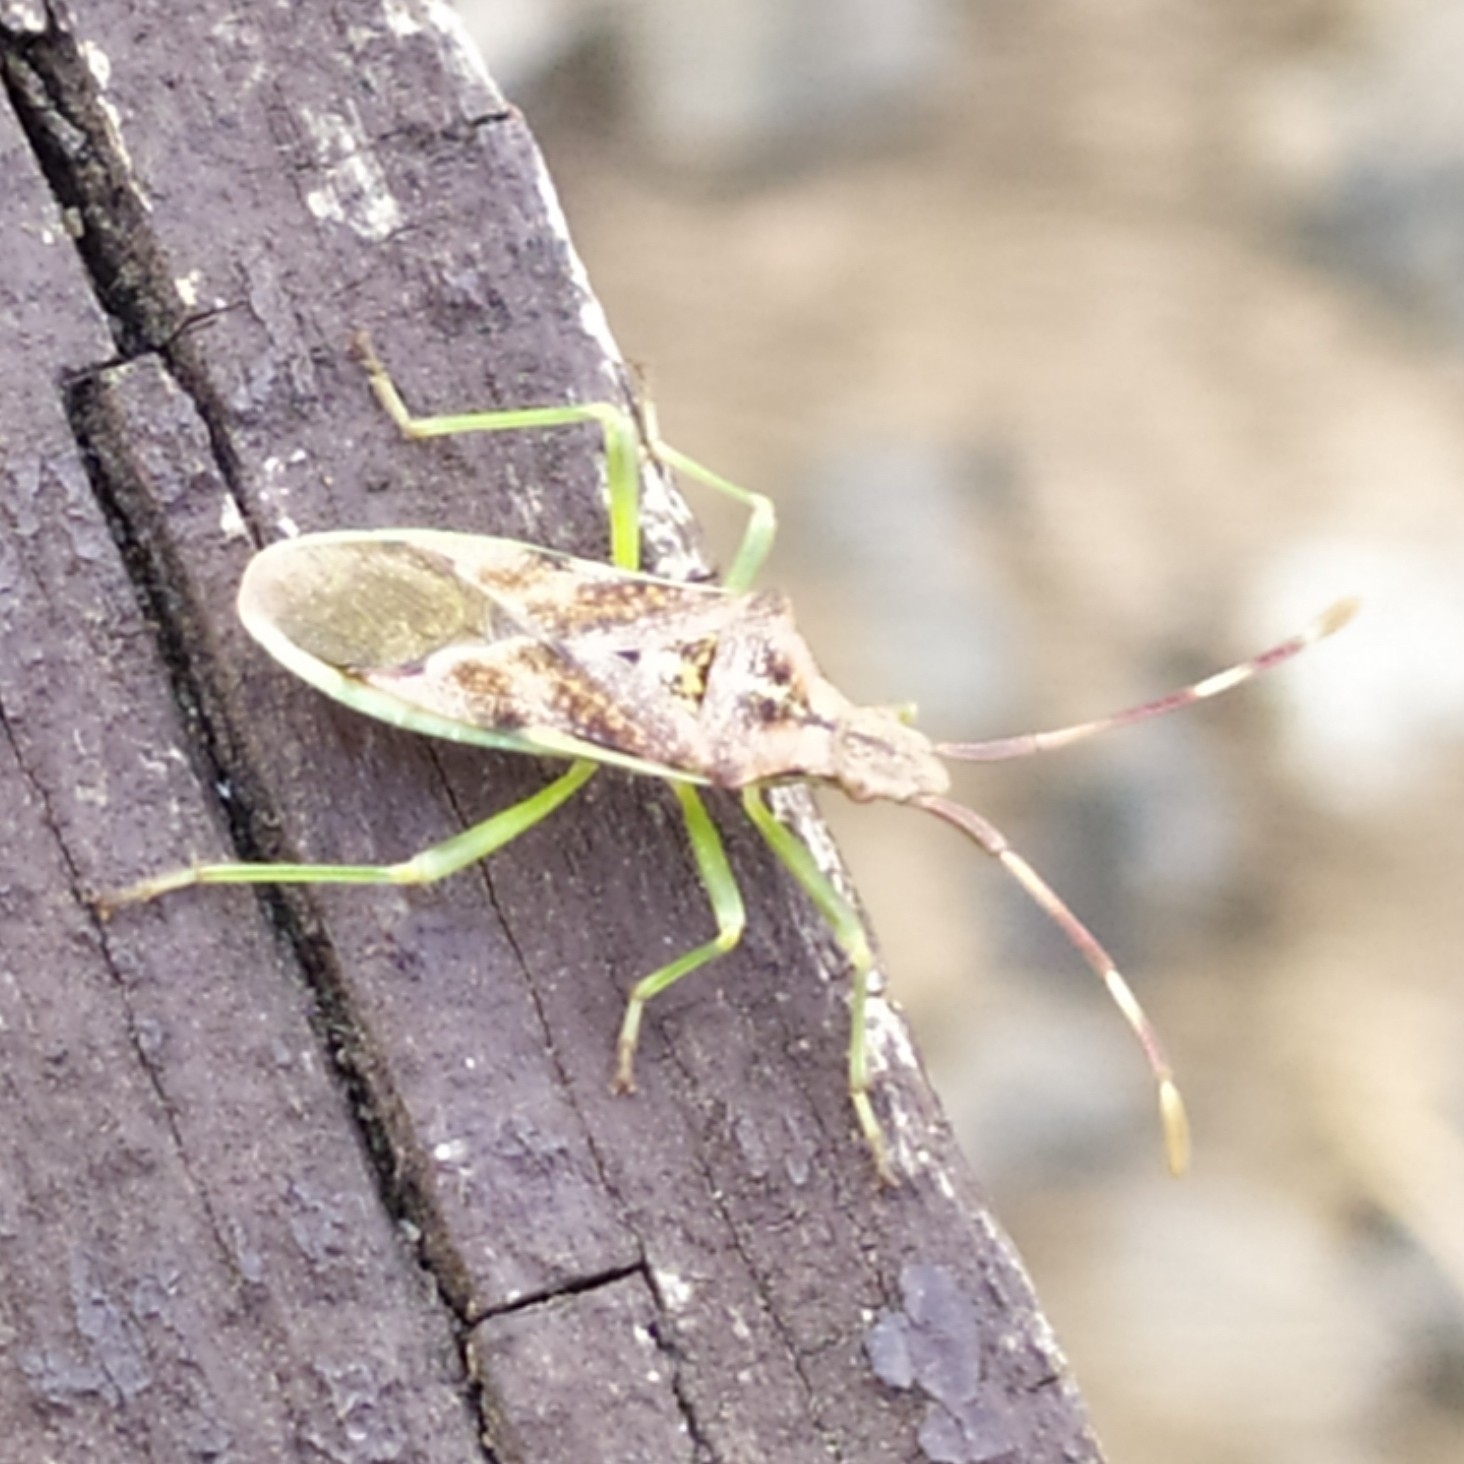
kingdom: Animalia
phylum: Arthropoda
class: Insecta
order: Hemiptera
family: Coreidae
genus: Gonocerus
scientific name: Gonocerus juniperi
